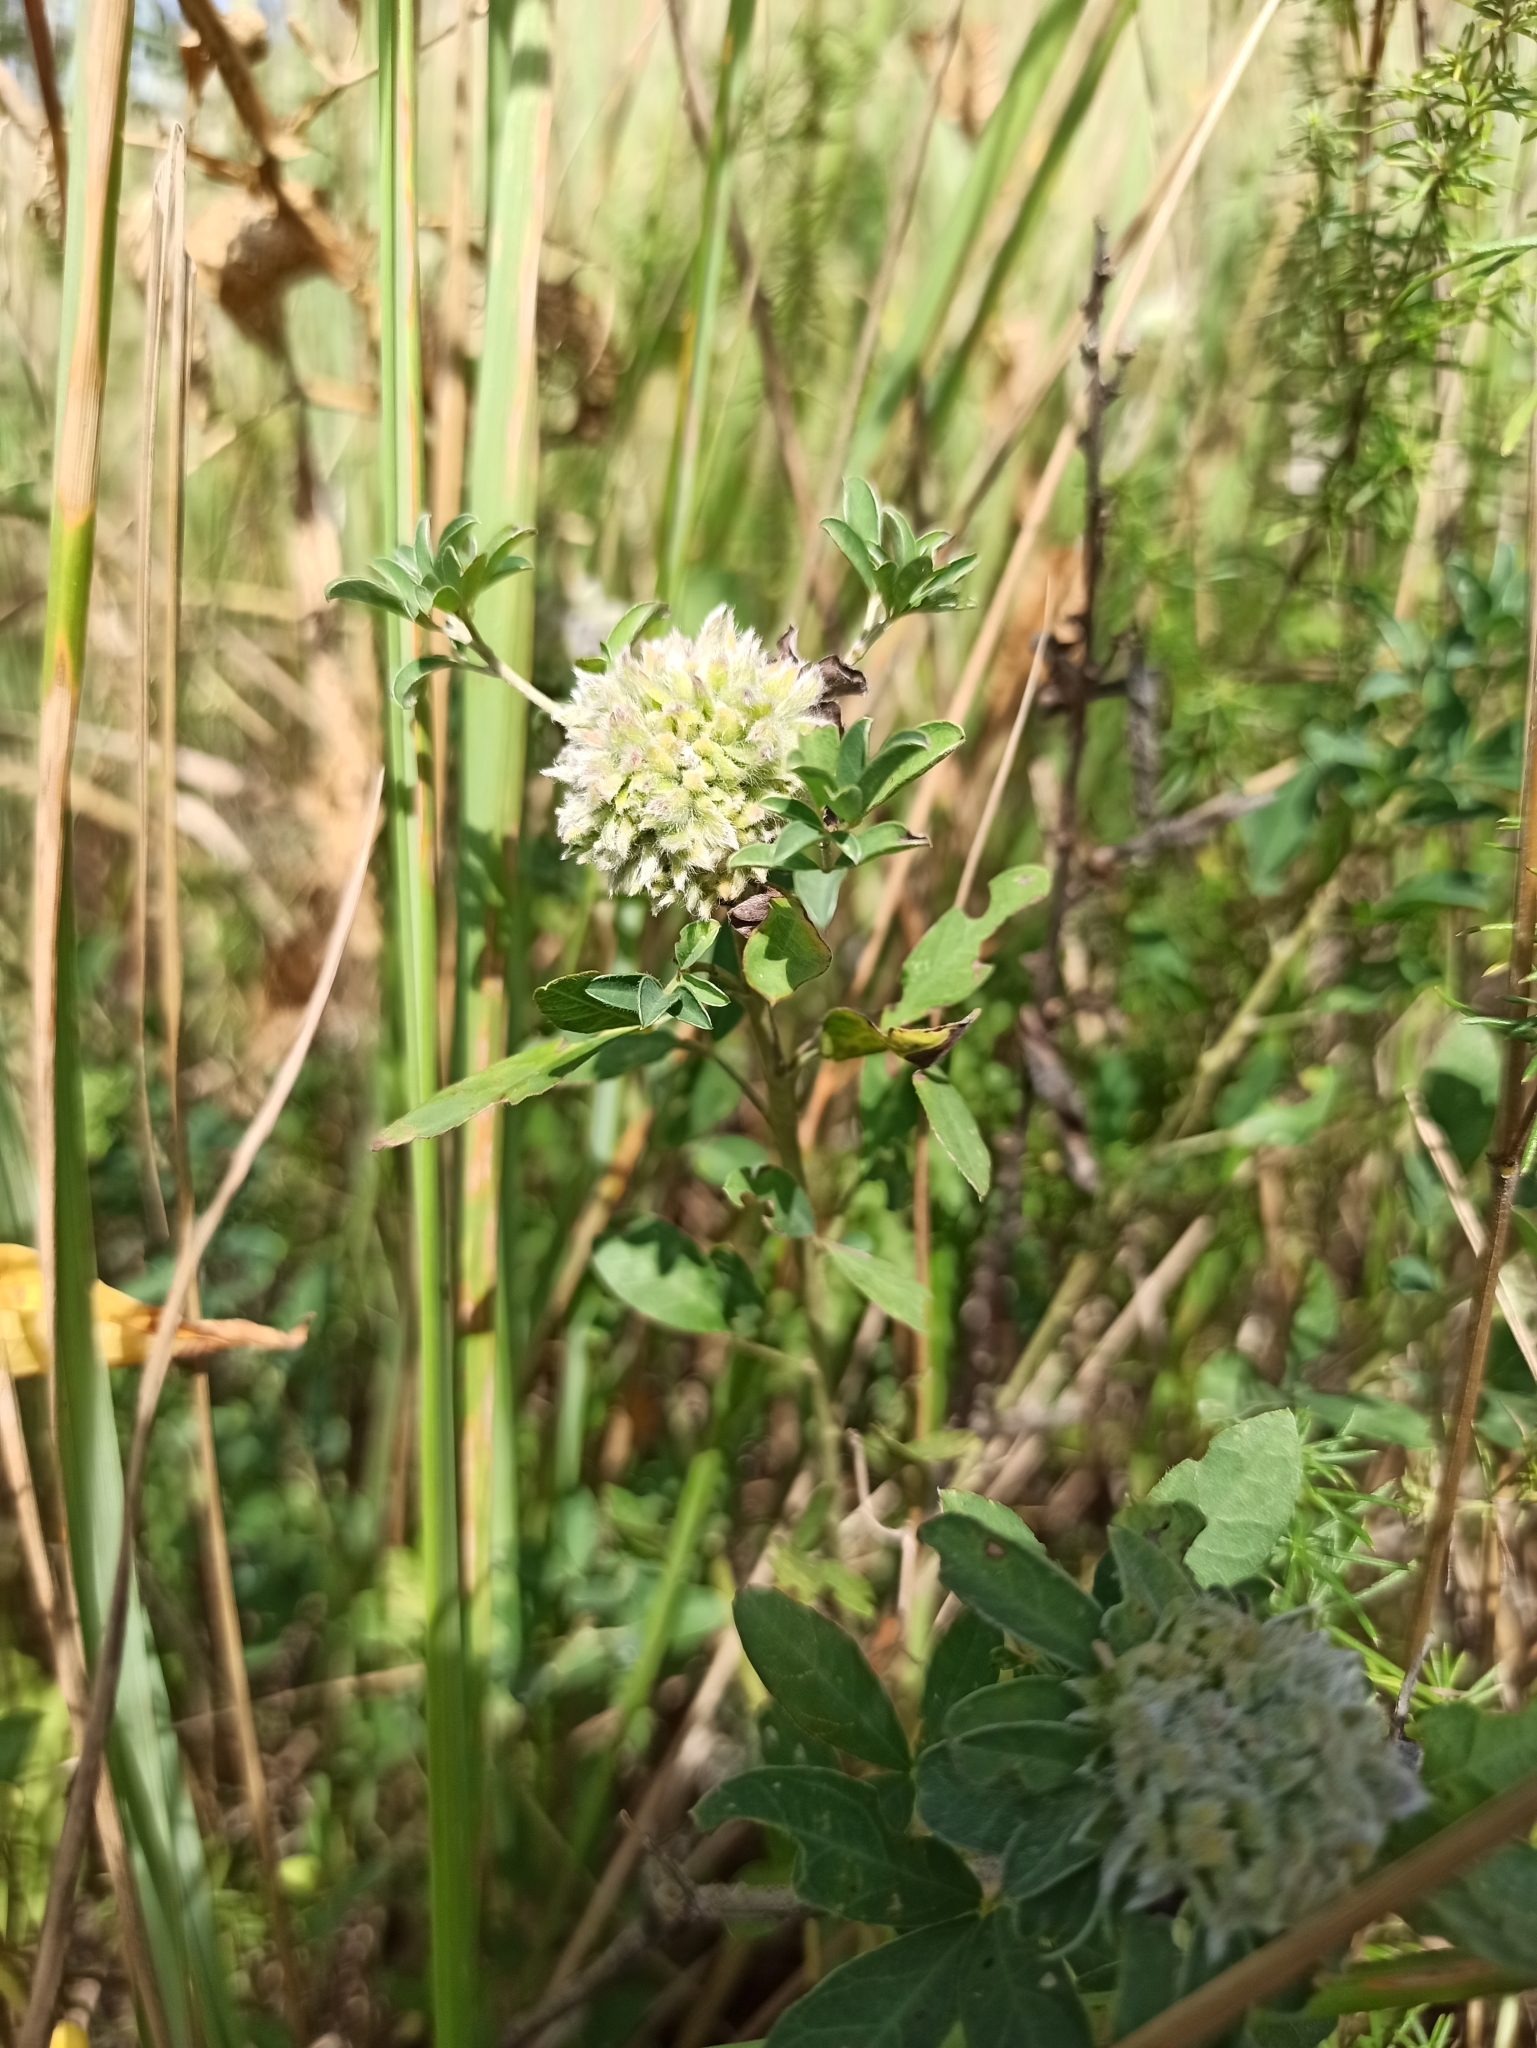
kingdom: Plantae
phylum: Tracheophyta
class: Magnoliopsida
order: Fabales
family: Fabaceae
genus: Chamaecytisus
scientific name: Chamaecytisus ruthenicus
